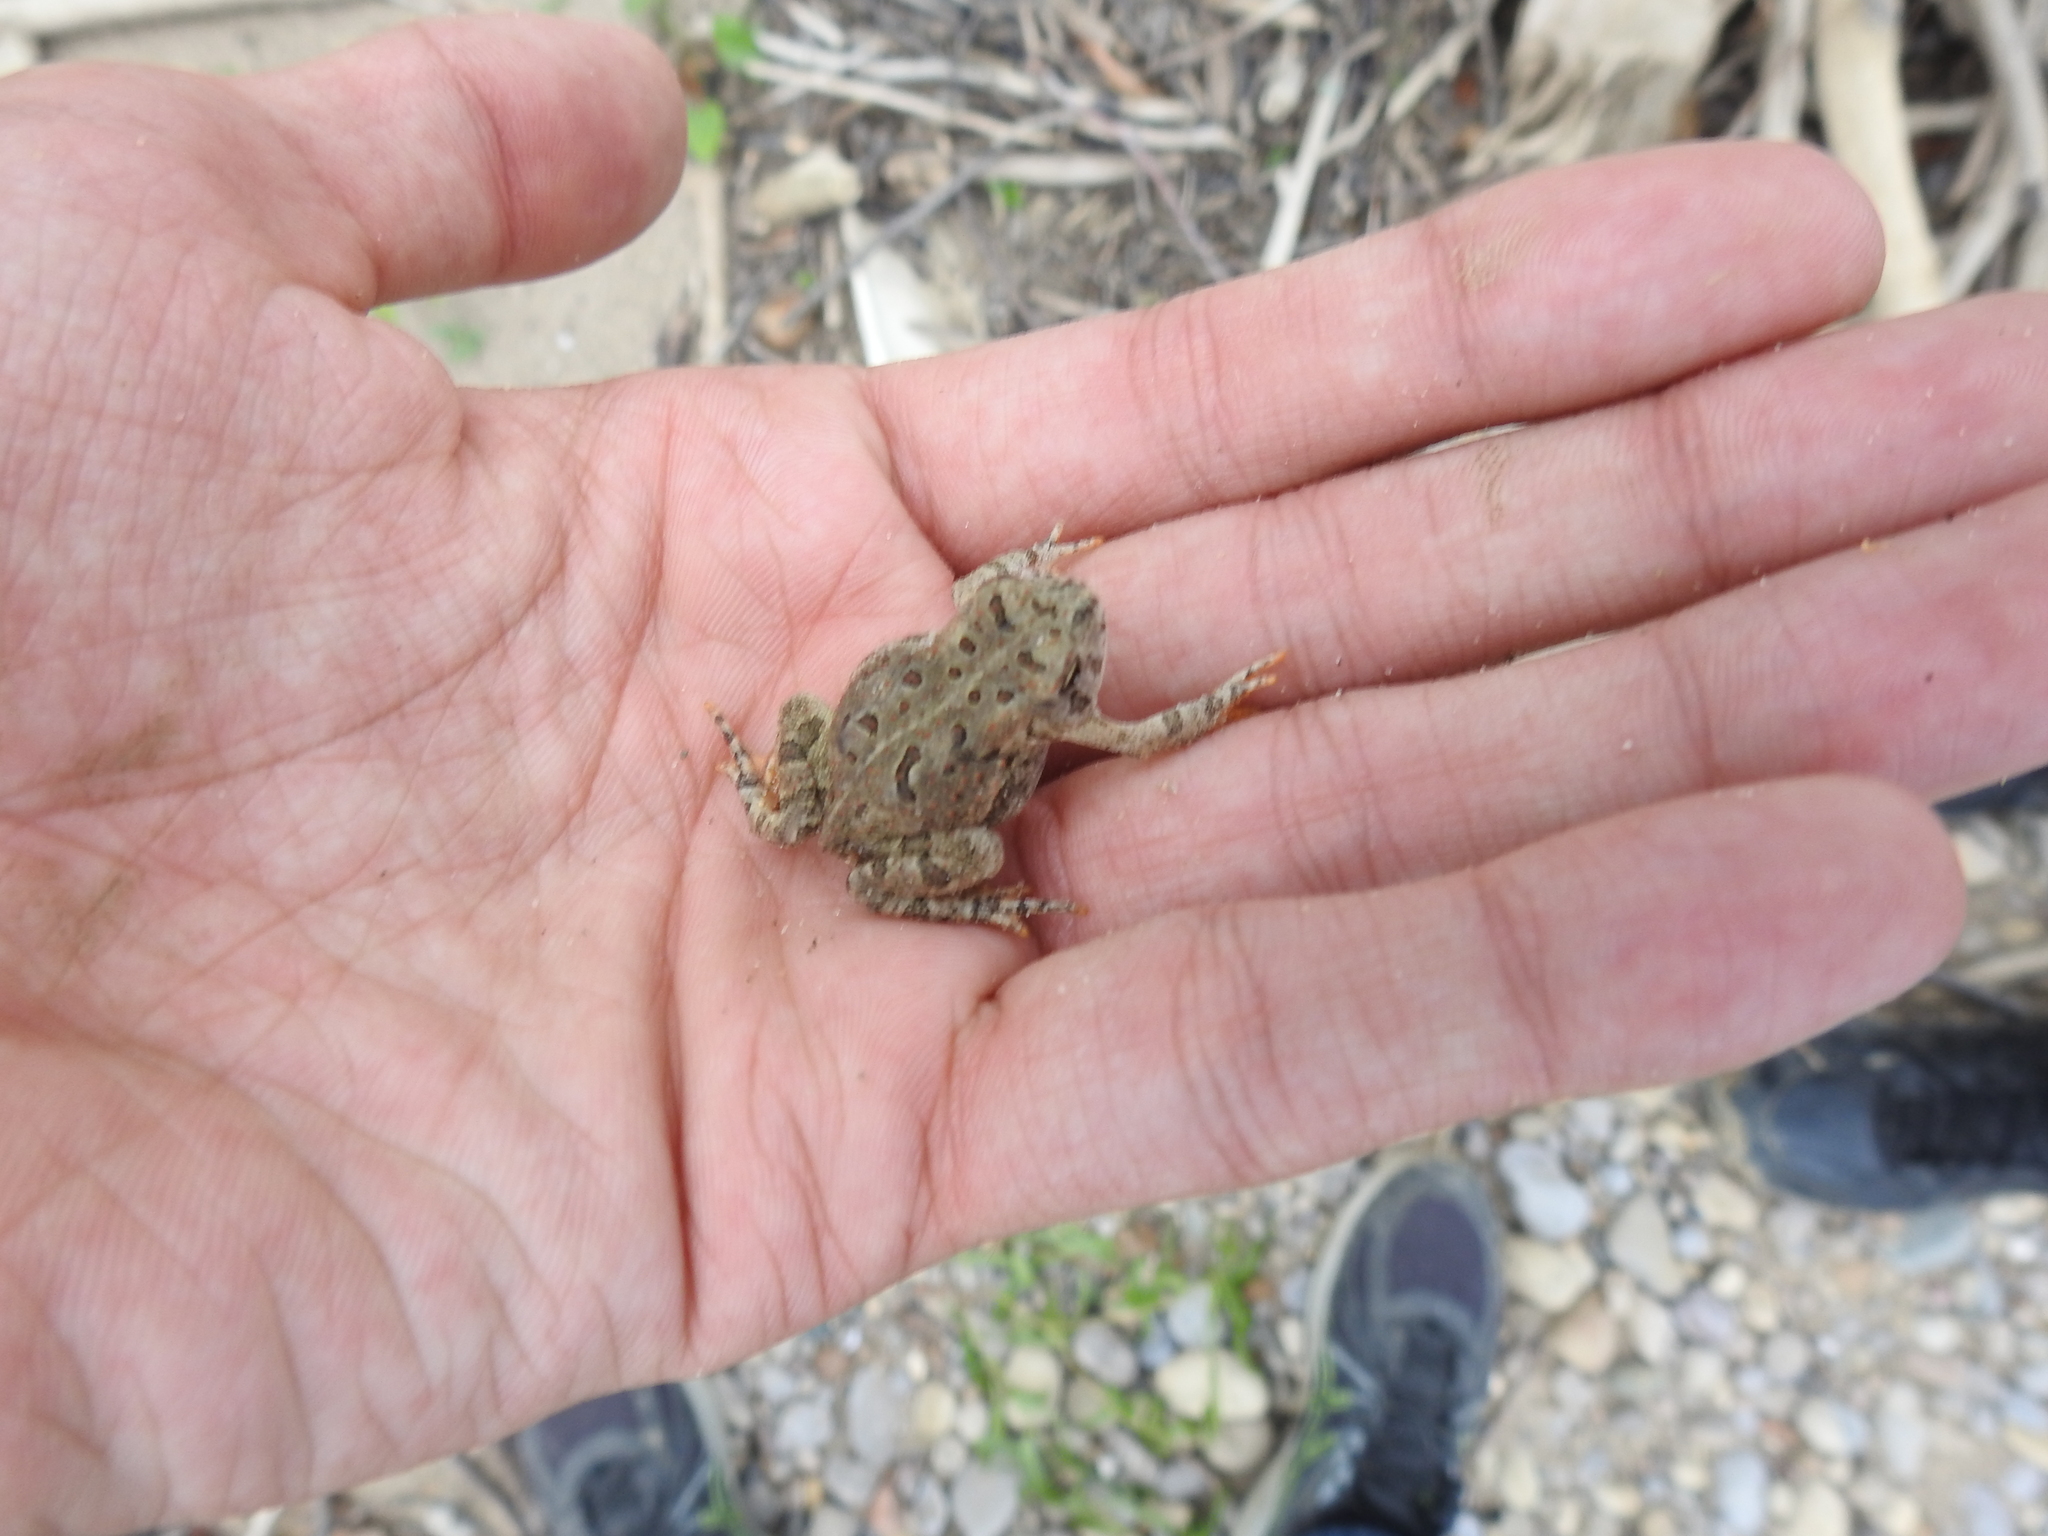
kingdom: Animalia
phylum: Chordata
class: Amphibia
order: Anura
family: Bufonidae
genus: Anaxyrus
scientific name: Anaxyrus fowleri
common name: Fowler's toad
